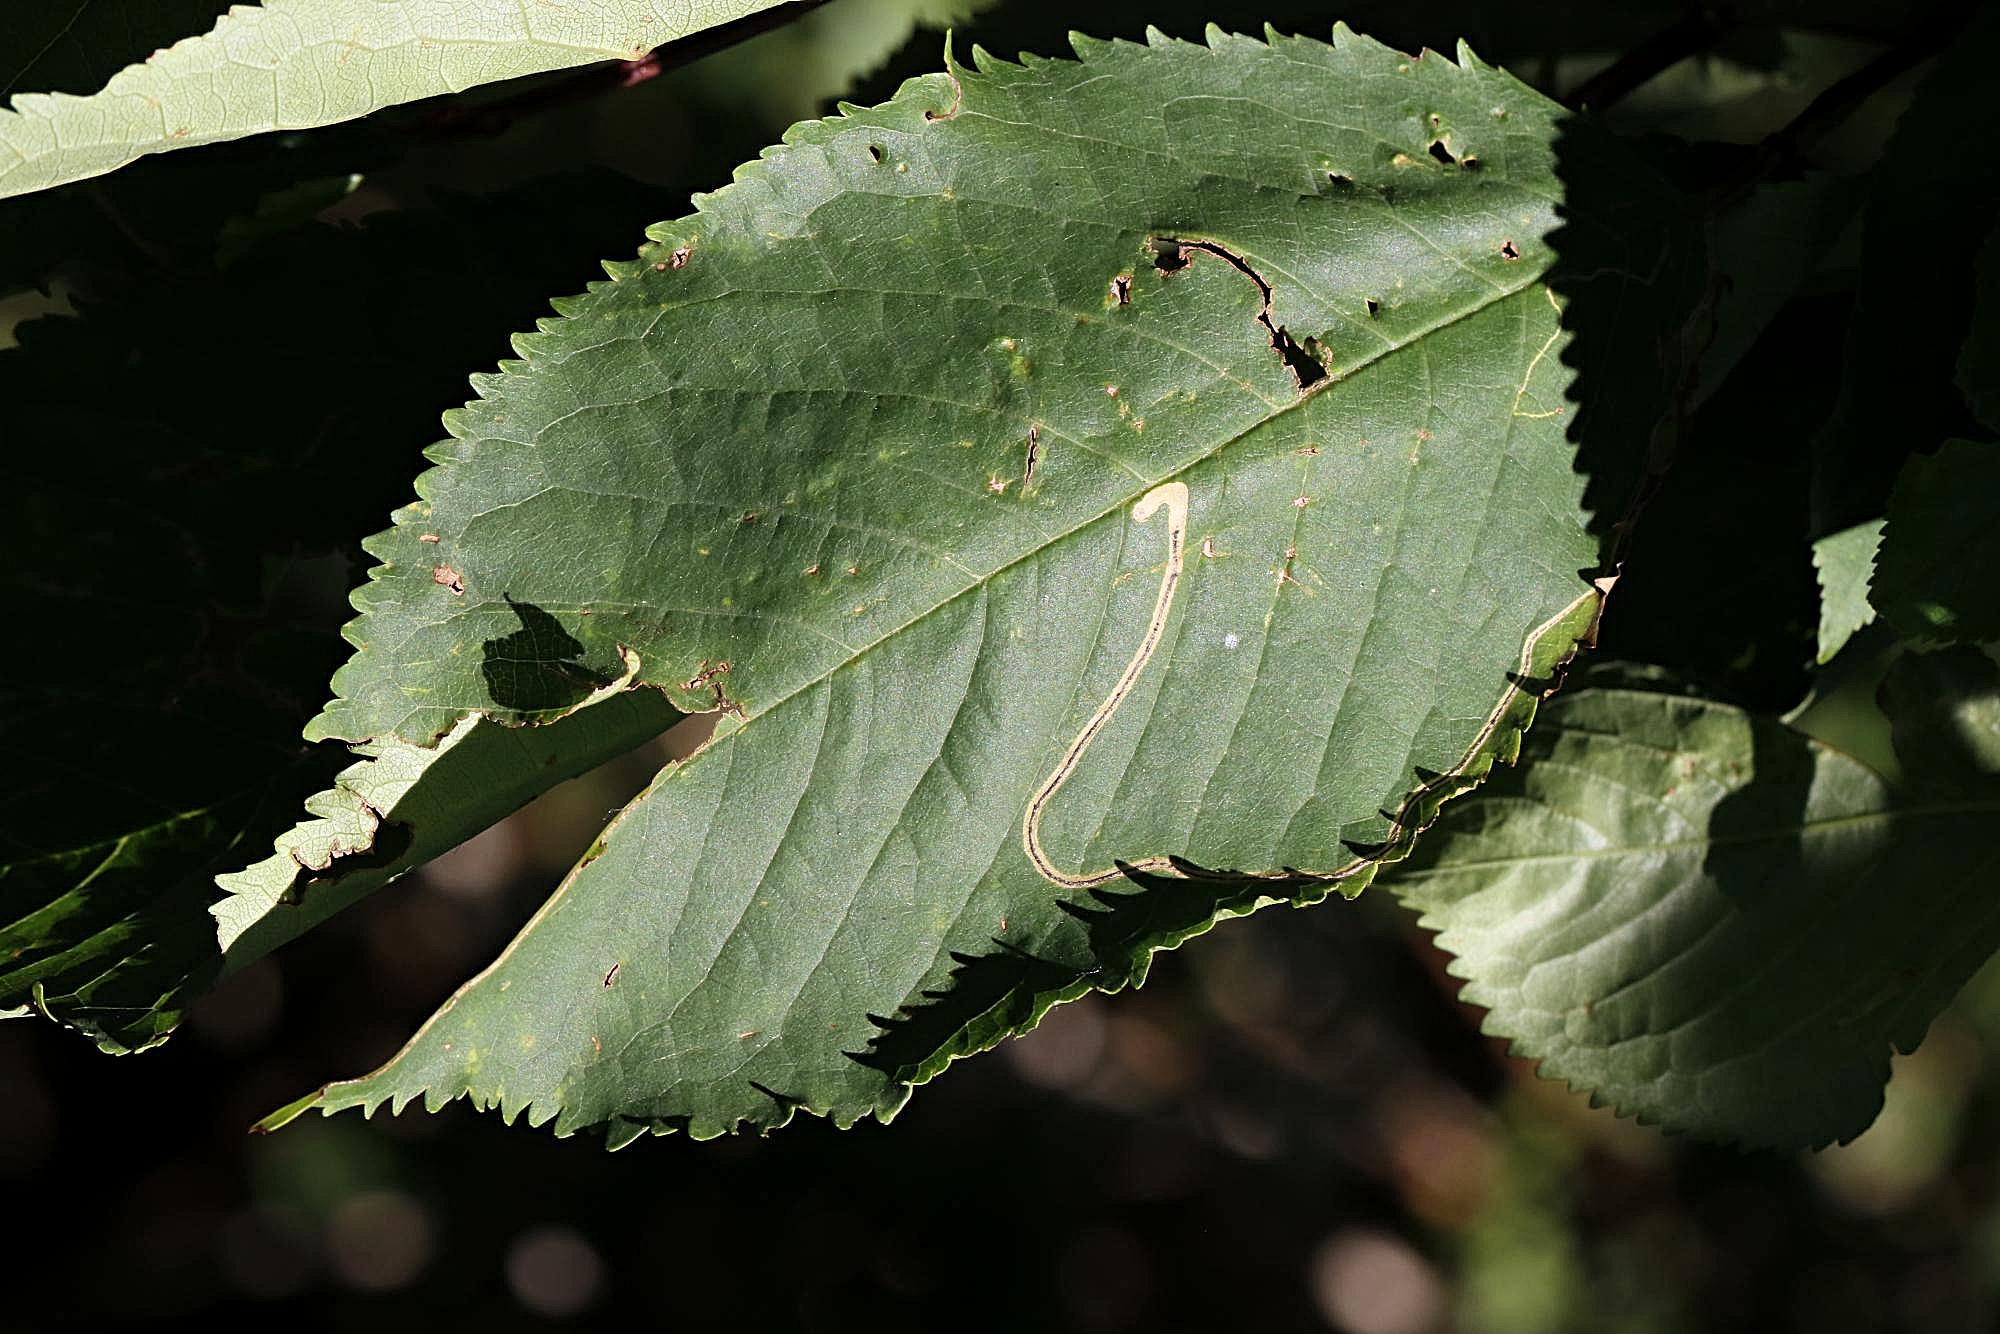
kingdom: Animalia
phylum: Arthropoda
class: Insecta
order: Lepidoptera
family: Lyonetiidae
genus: Lyonetia
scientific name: Lyonetia clerkella
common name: Apple leaf miner
